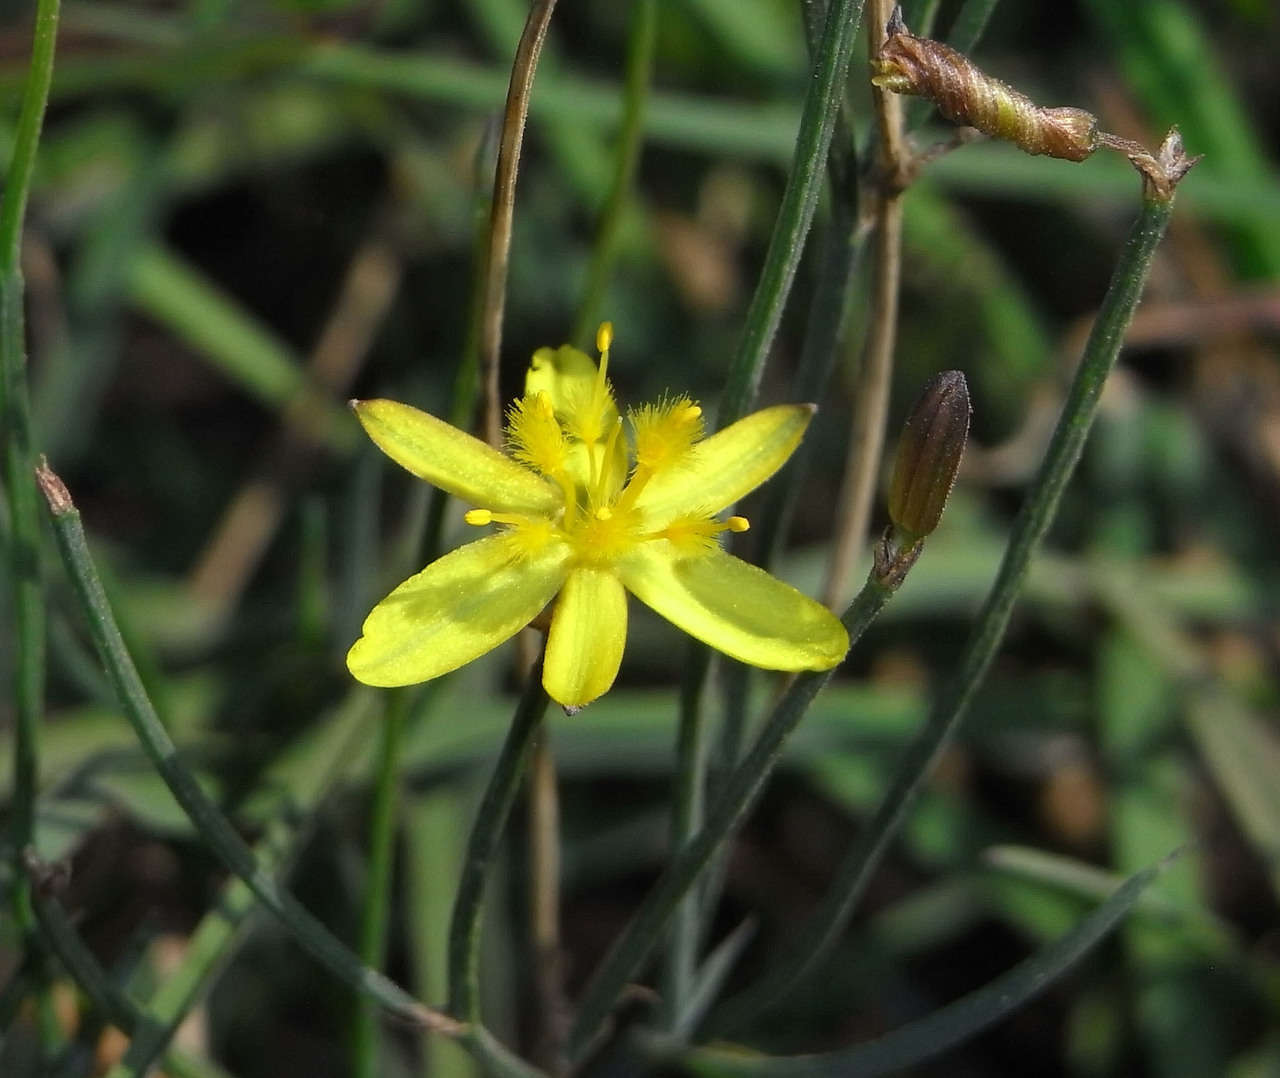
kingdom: Plantae
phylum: Tracheophyta
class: Liliopsida
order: Asparagales
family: Asphodelaceae
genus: Tricoryne
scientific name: Tricoryne elatior
